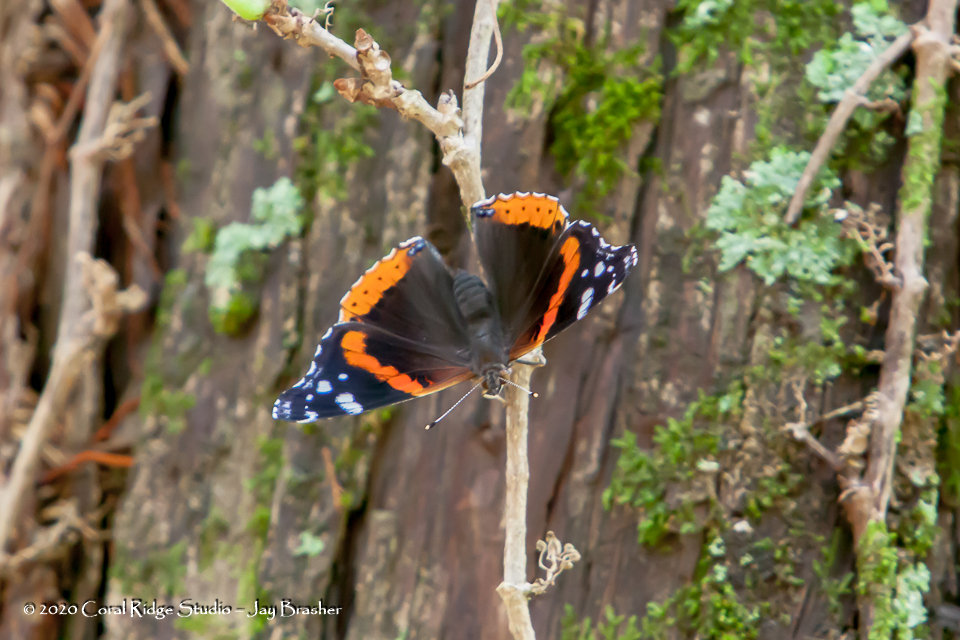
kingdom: Animalia
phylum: Arthropoda
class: Insecta
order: Lepidoptera
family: Nymphalidae
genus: Vanessa
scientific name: Vanessa atalanta
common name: Red admiral
